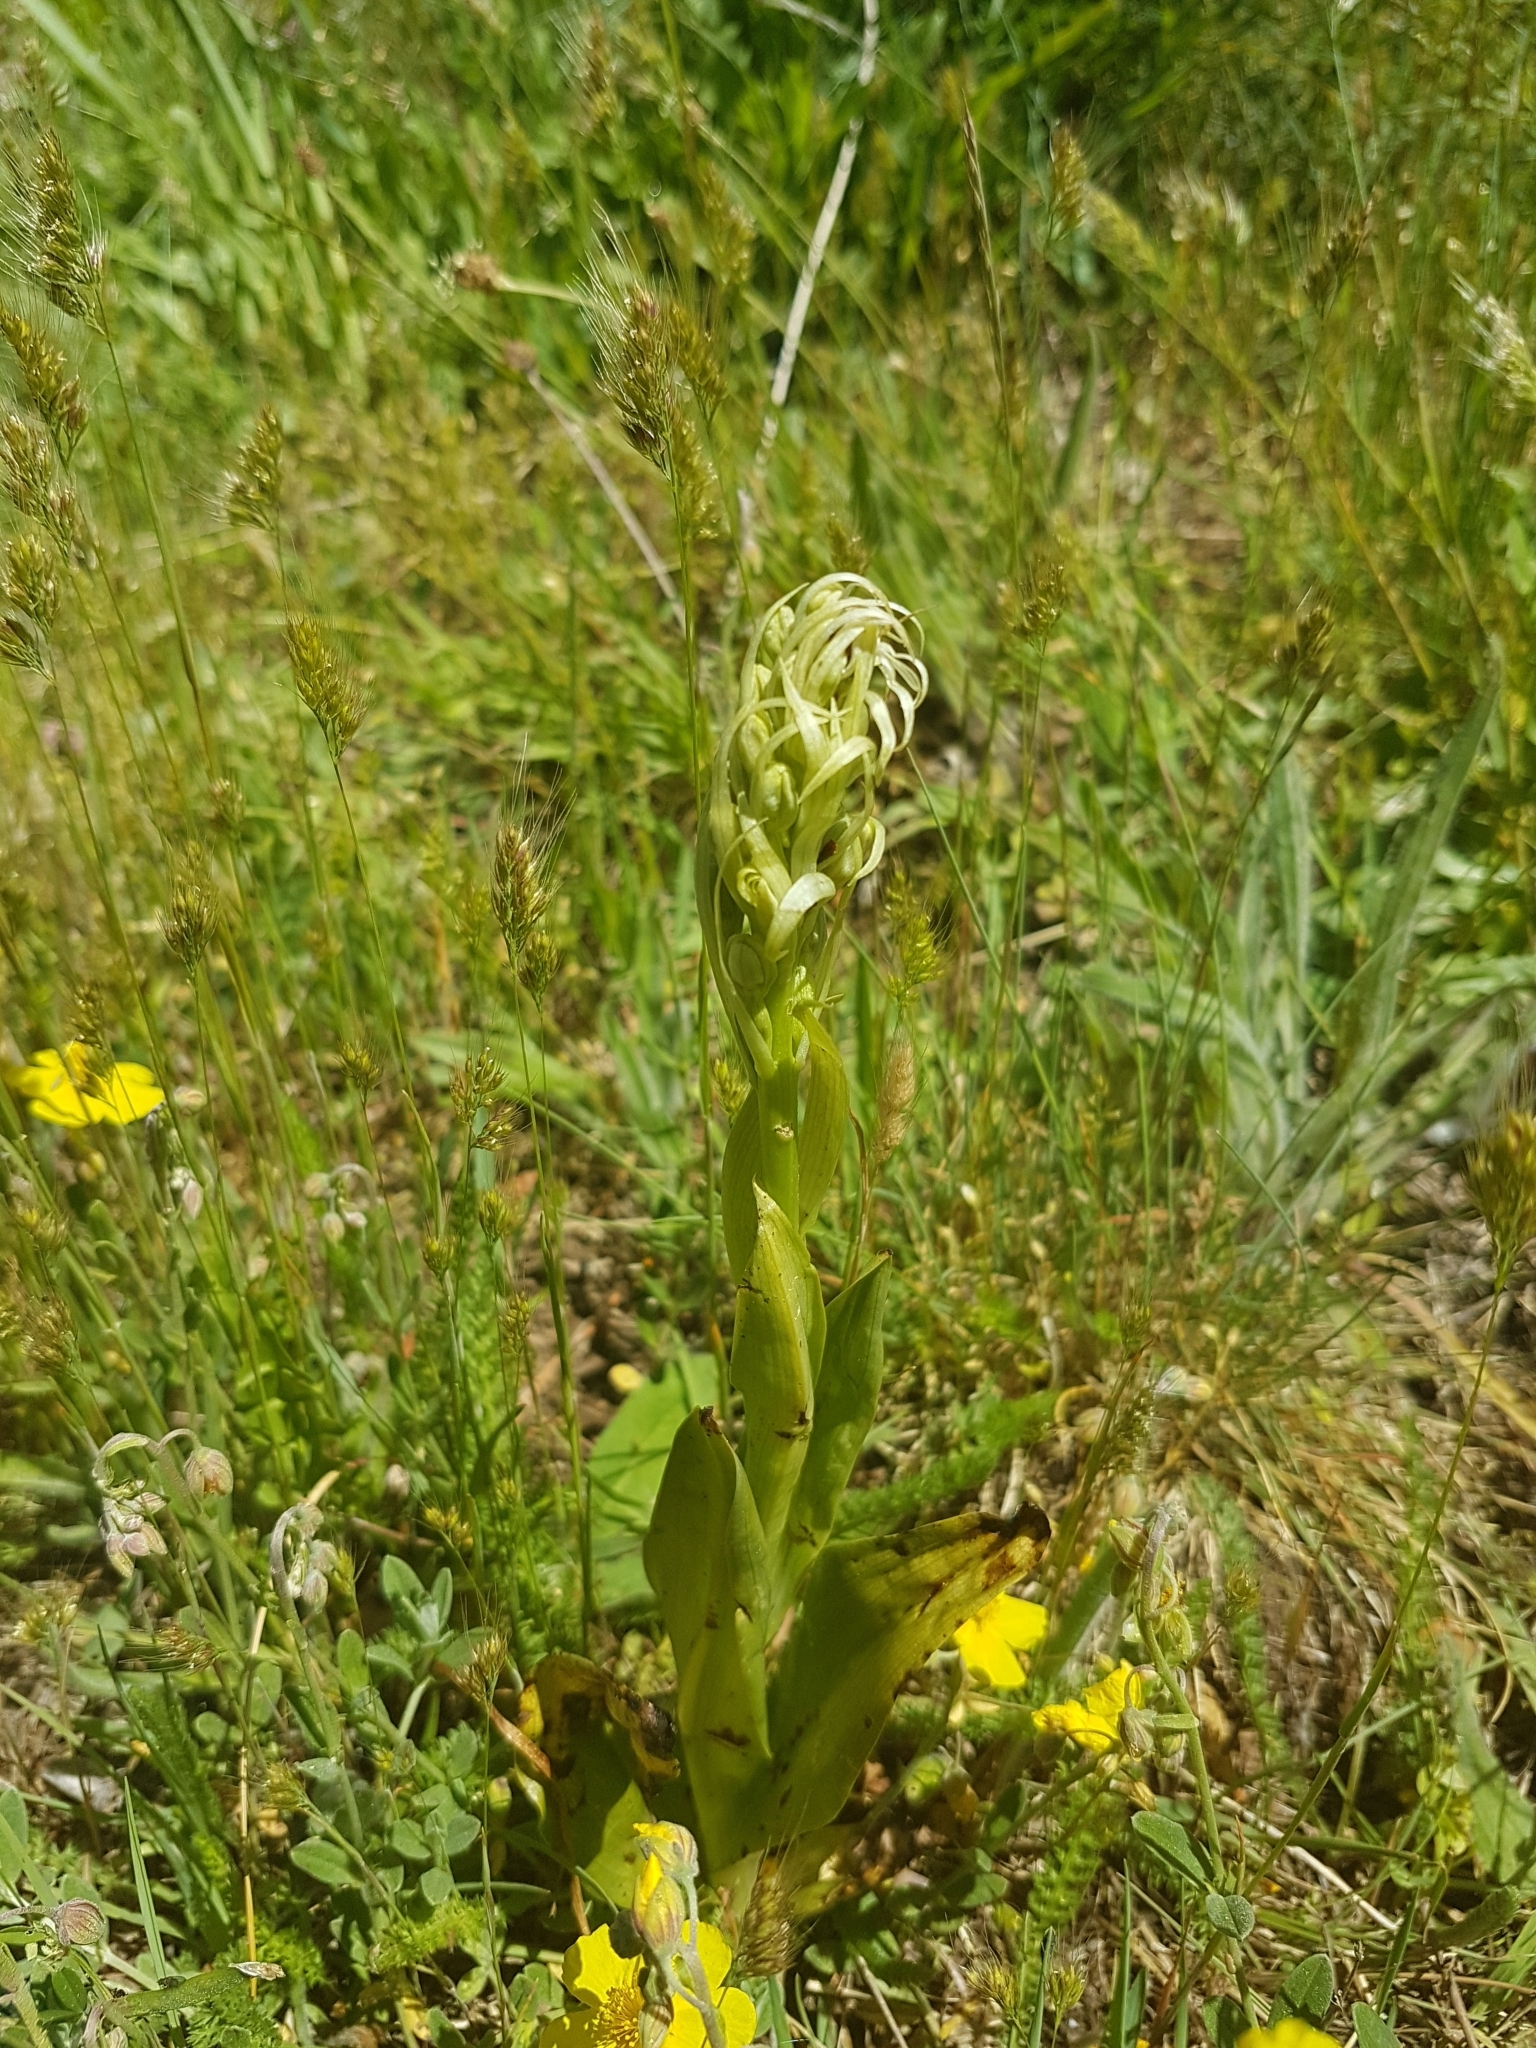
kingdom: Plantae
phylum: Tracheophyta
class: Liliopsida
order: Asparagales
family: Orchidaceae
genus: Himantoglossum
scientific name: Himantoglossum hircinum
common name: Lizard orchid
